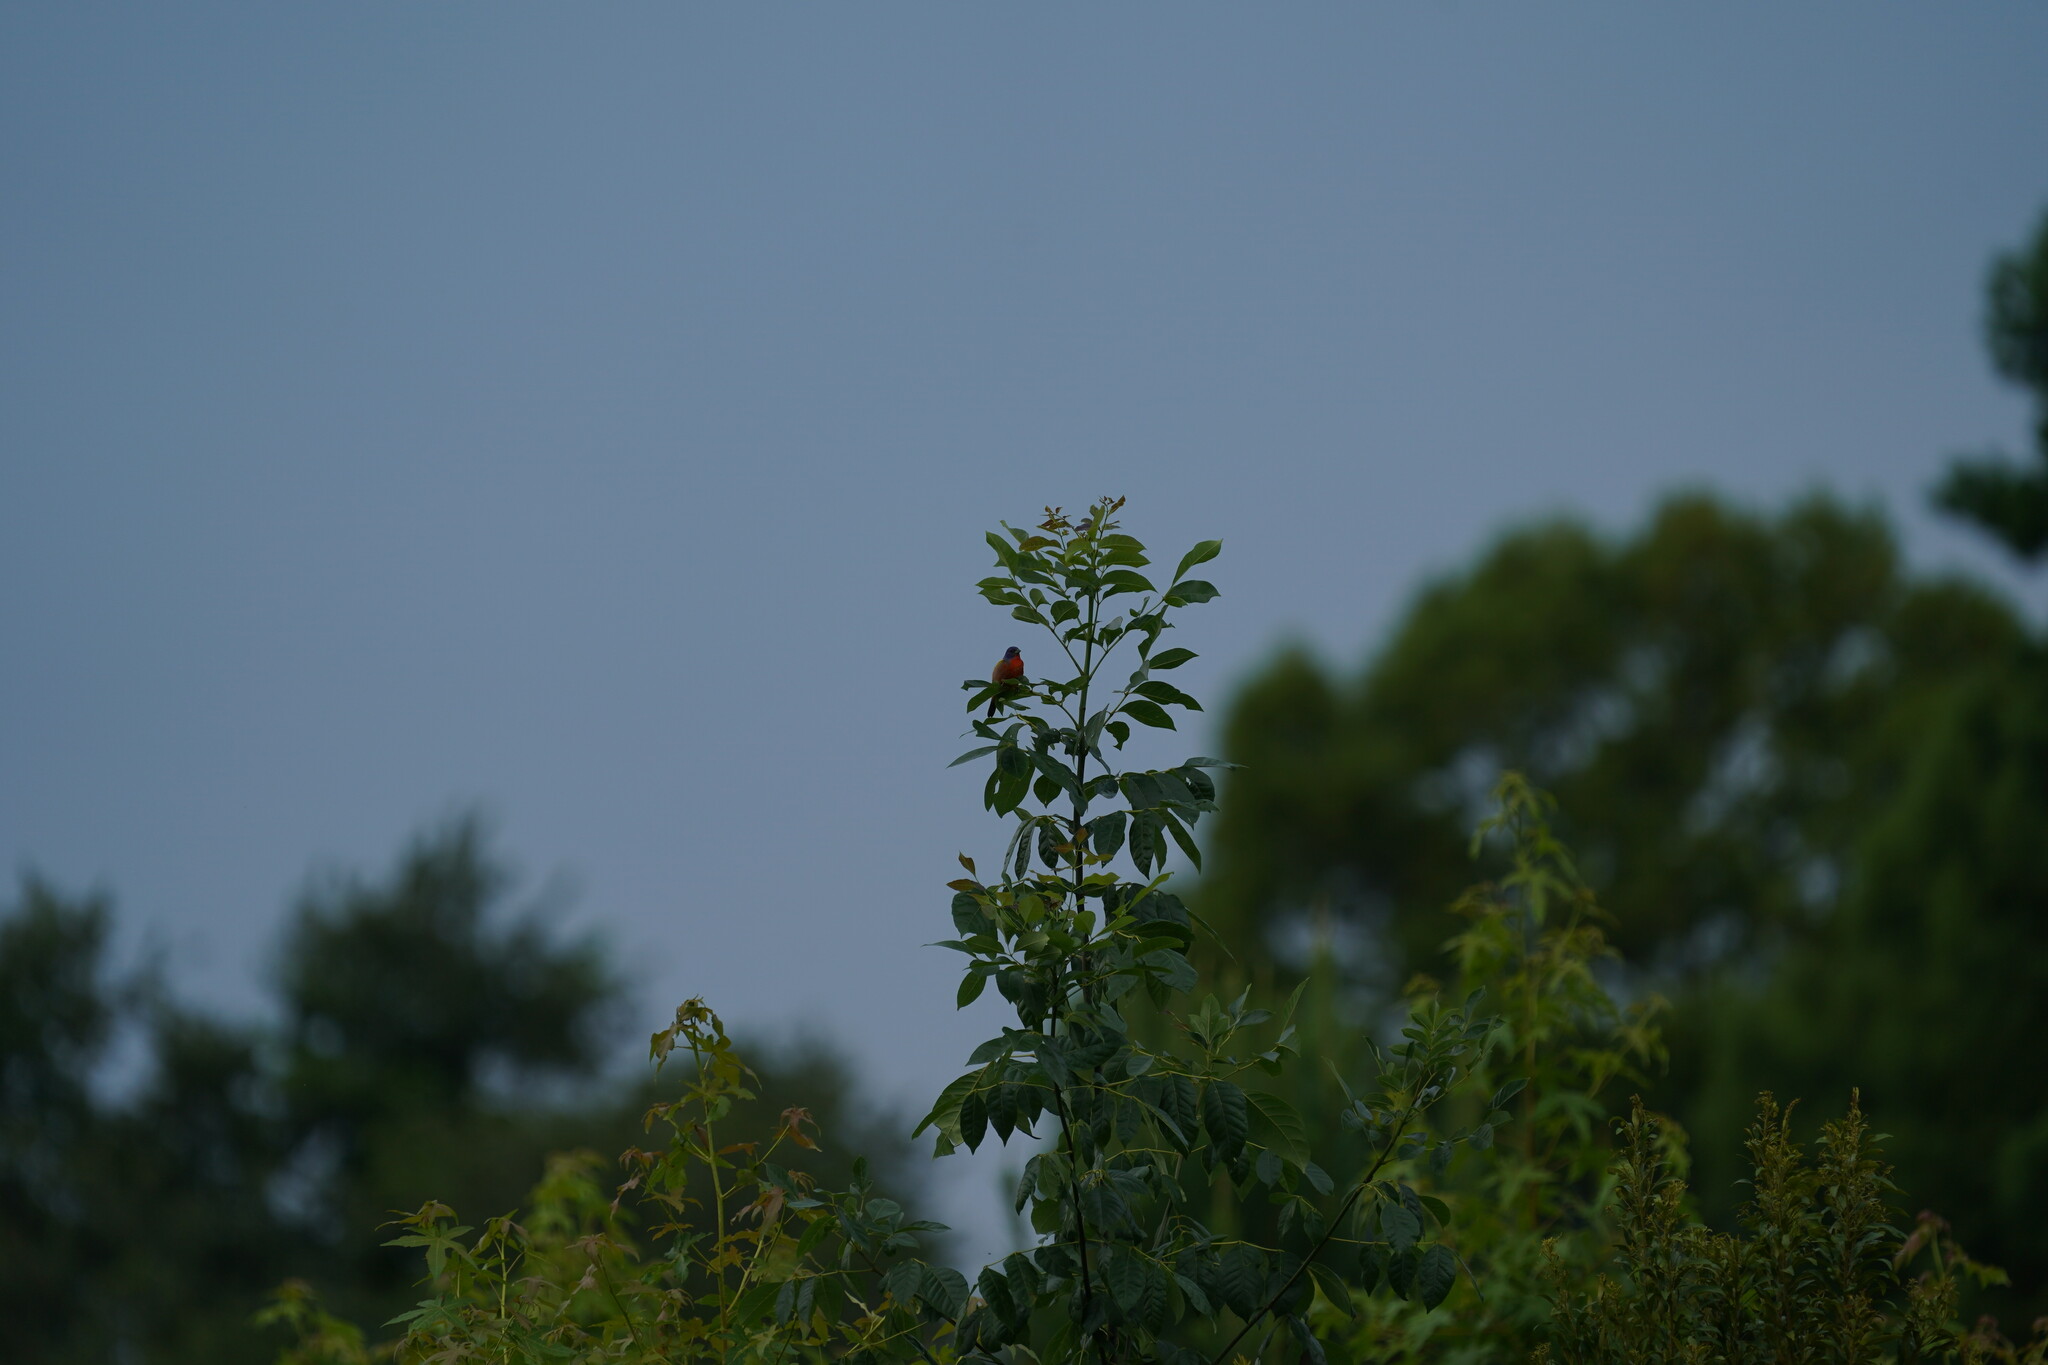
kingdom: Animalia
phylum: Chordata
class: Aves
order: Passeriformes
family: Cardinalidae
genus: Passerina
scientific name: Passerina ciris
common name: Painted bunting
